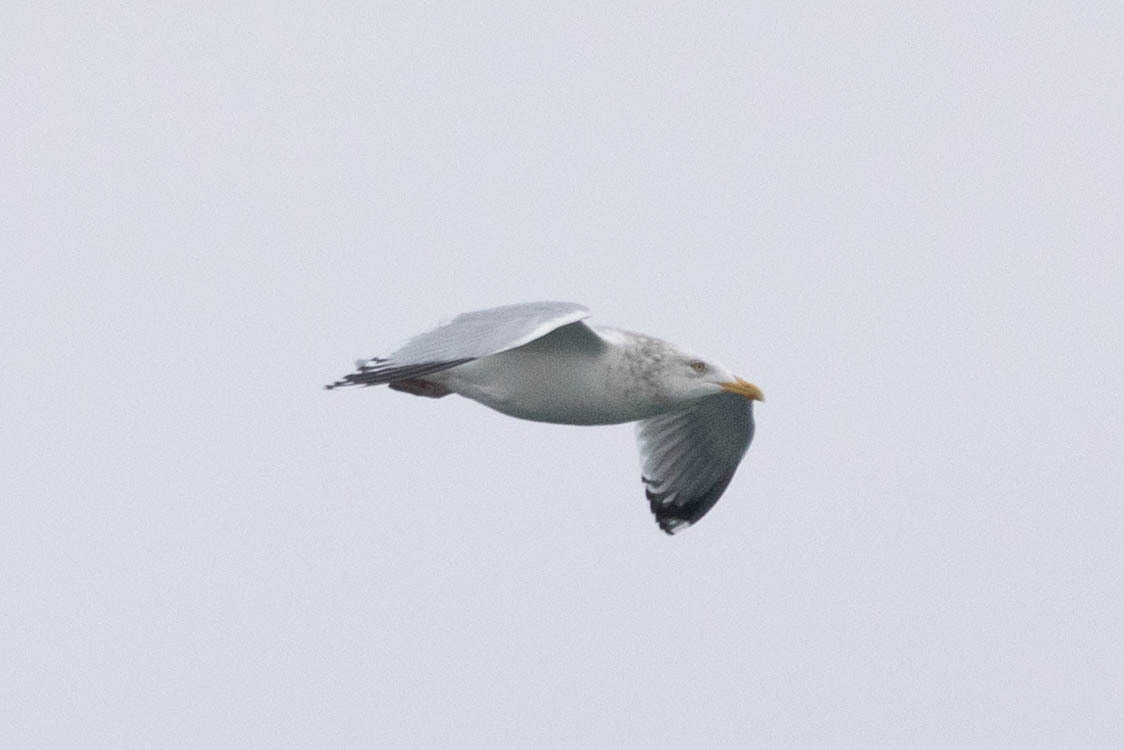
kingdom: Animalia
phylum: Chordata
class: Aves
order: Charadriiformes
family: Laridae
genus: Larus
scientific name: Larus smithsonianus
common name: American herring gull
